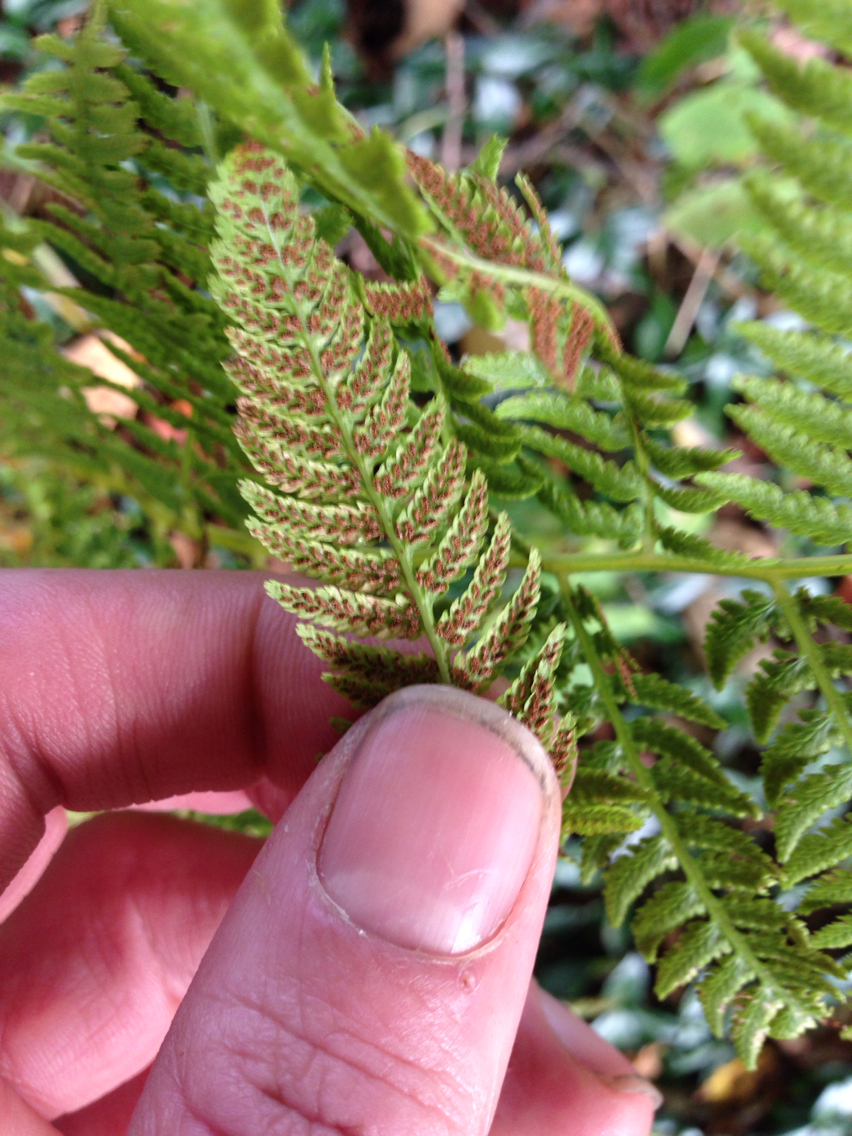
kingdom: Plantae
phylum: Tracheophyta
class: Polypodiopsida
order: Polypodiales
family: Athyriaceae
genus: Athyrium
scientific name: Athyrium angustum
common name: Northern lady fern
